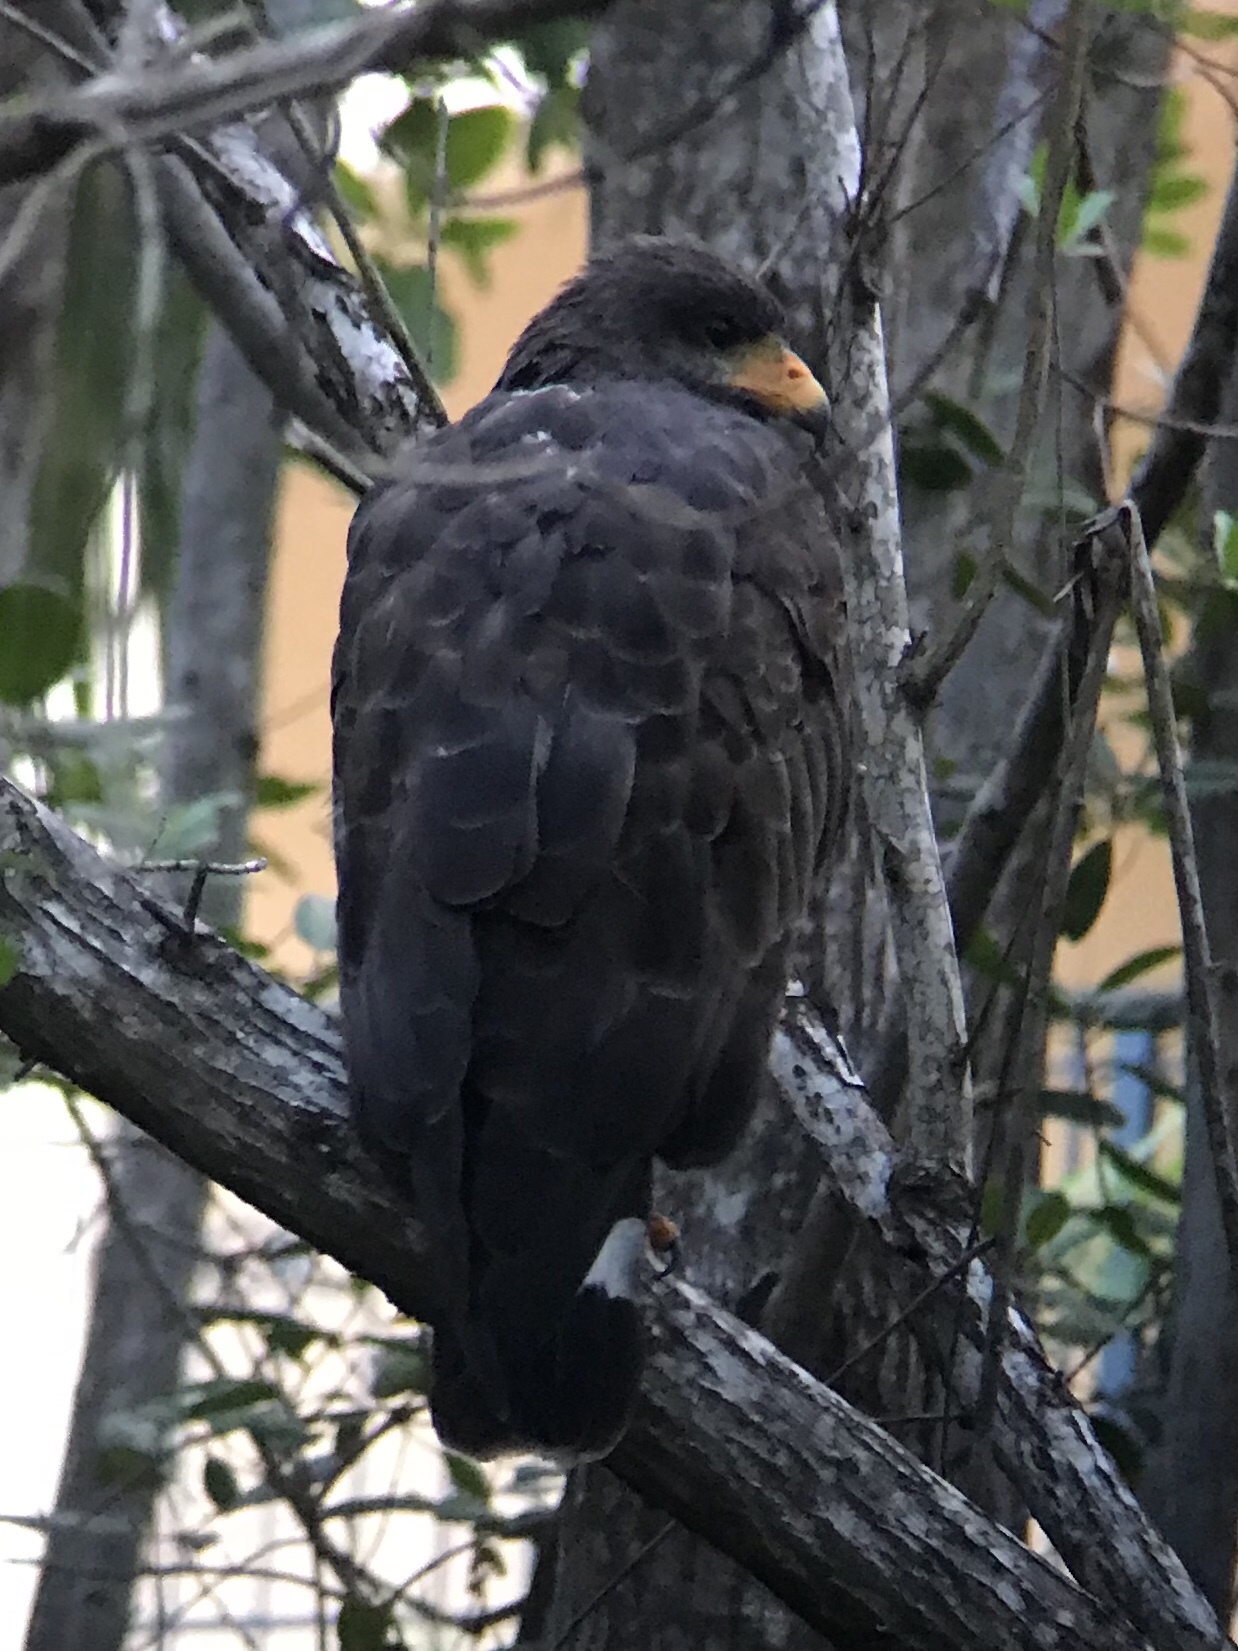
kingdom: Animalia
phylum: Chordata
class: Aves
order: Accipitriformes
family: Accipitridae
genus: Buteogallus
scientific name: Buteogallus anthracinus
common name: Common black hawk
